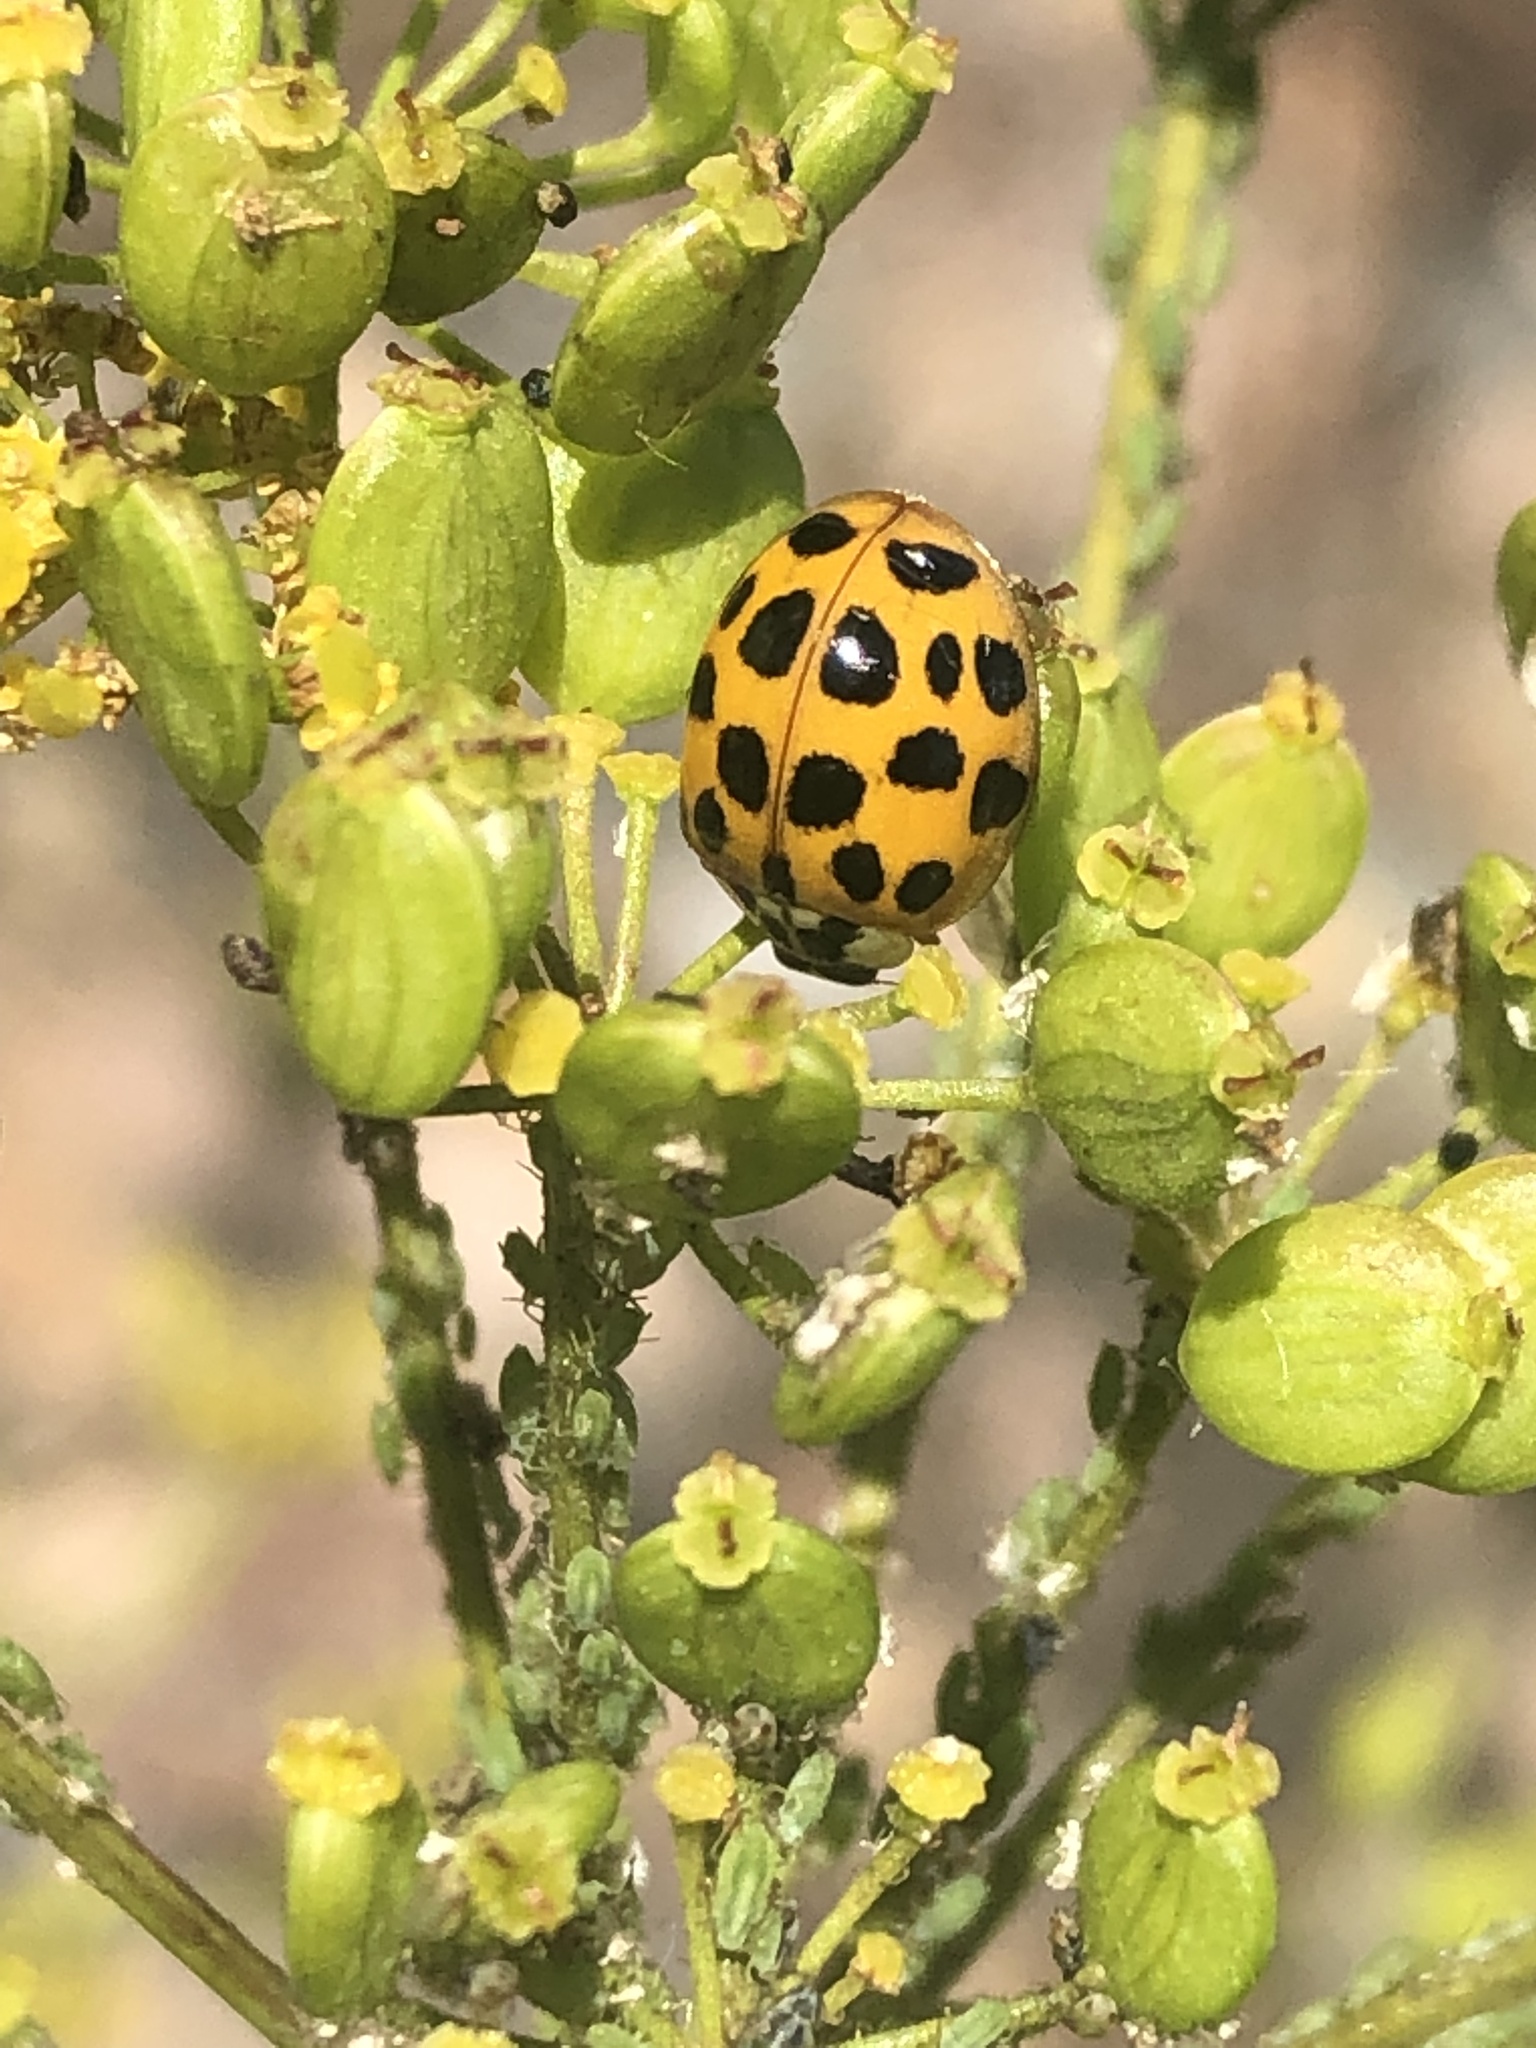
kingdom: Animalia
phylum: Arthropoda
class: Insecta
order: Coleoptera
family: Coccinellidae
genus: Harmonia
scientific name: Harmonia axyridis
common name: Harlequin ladybird
